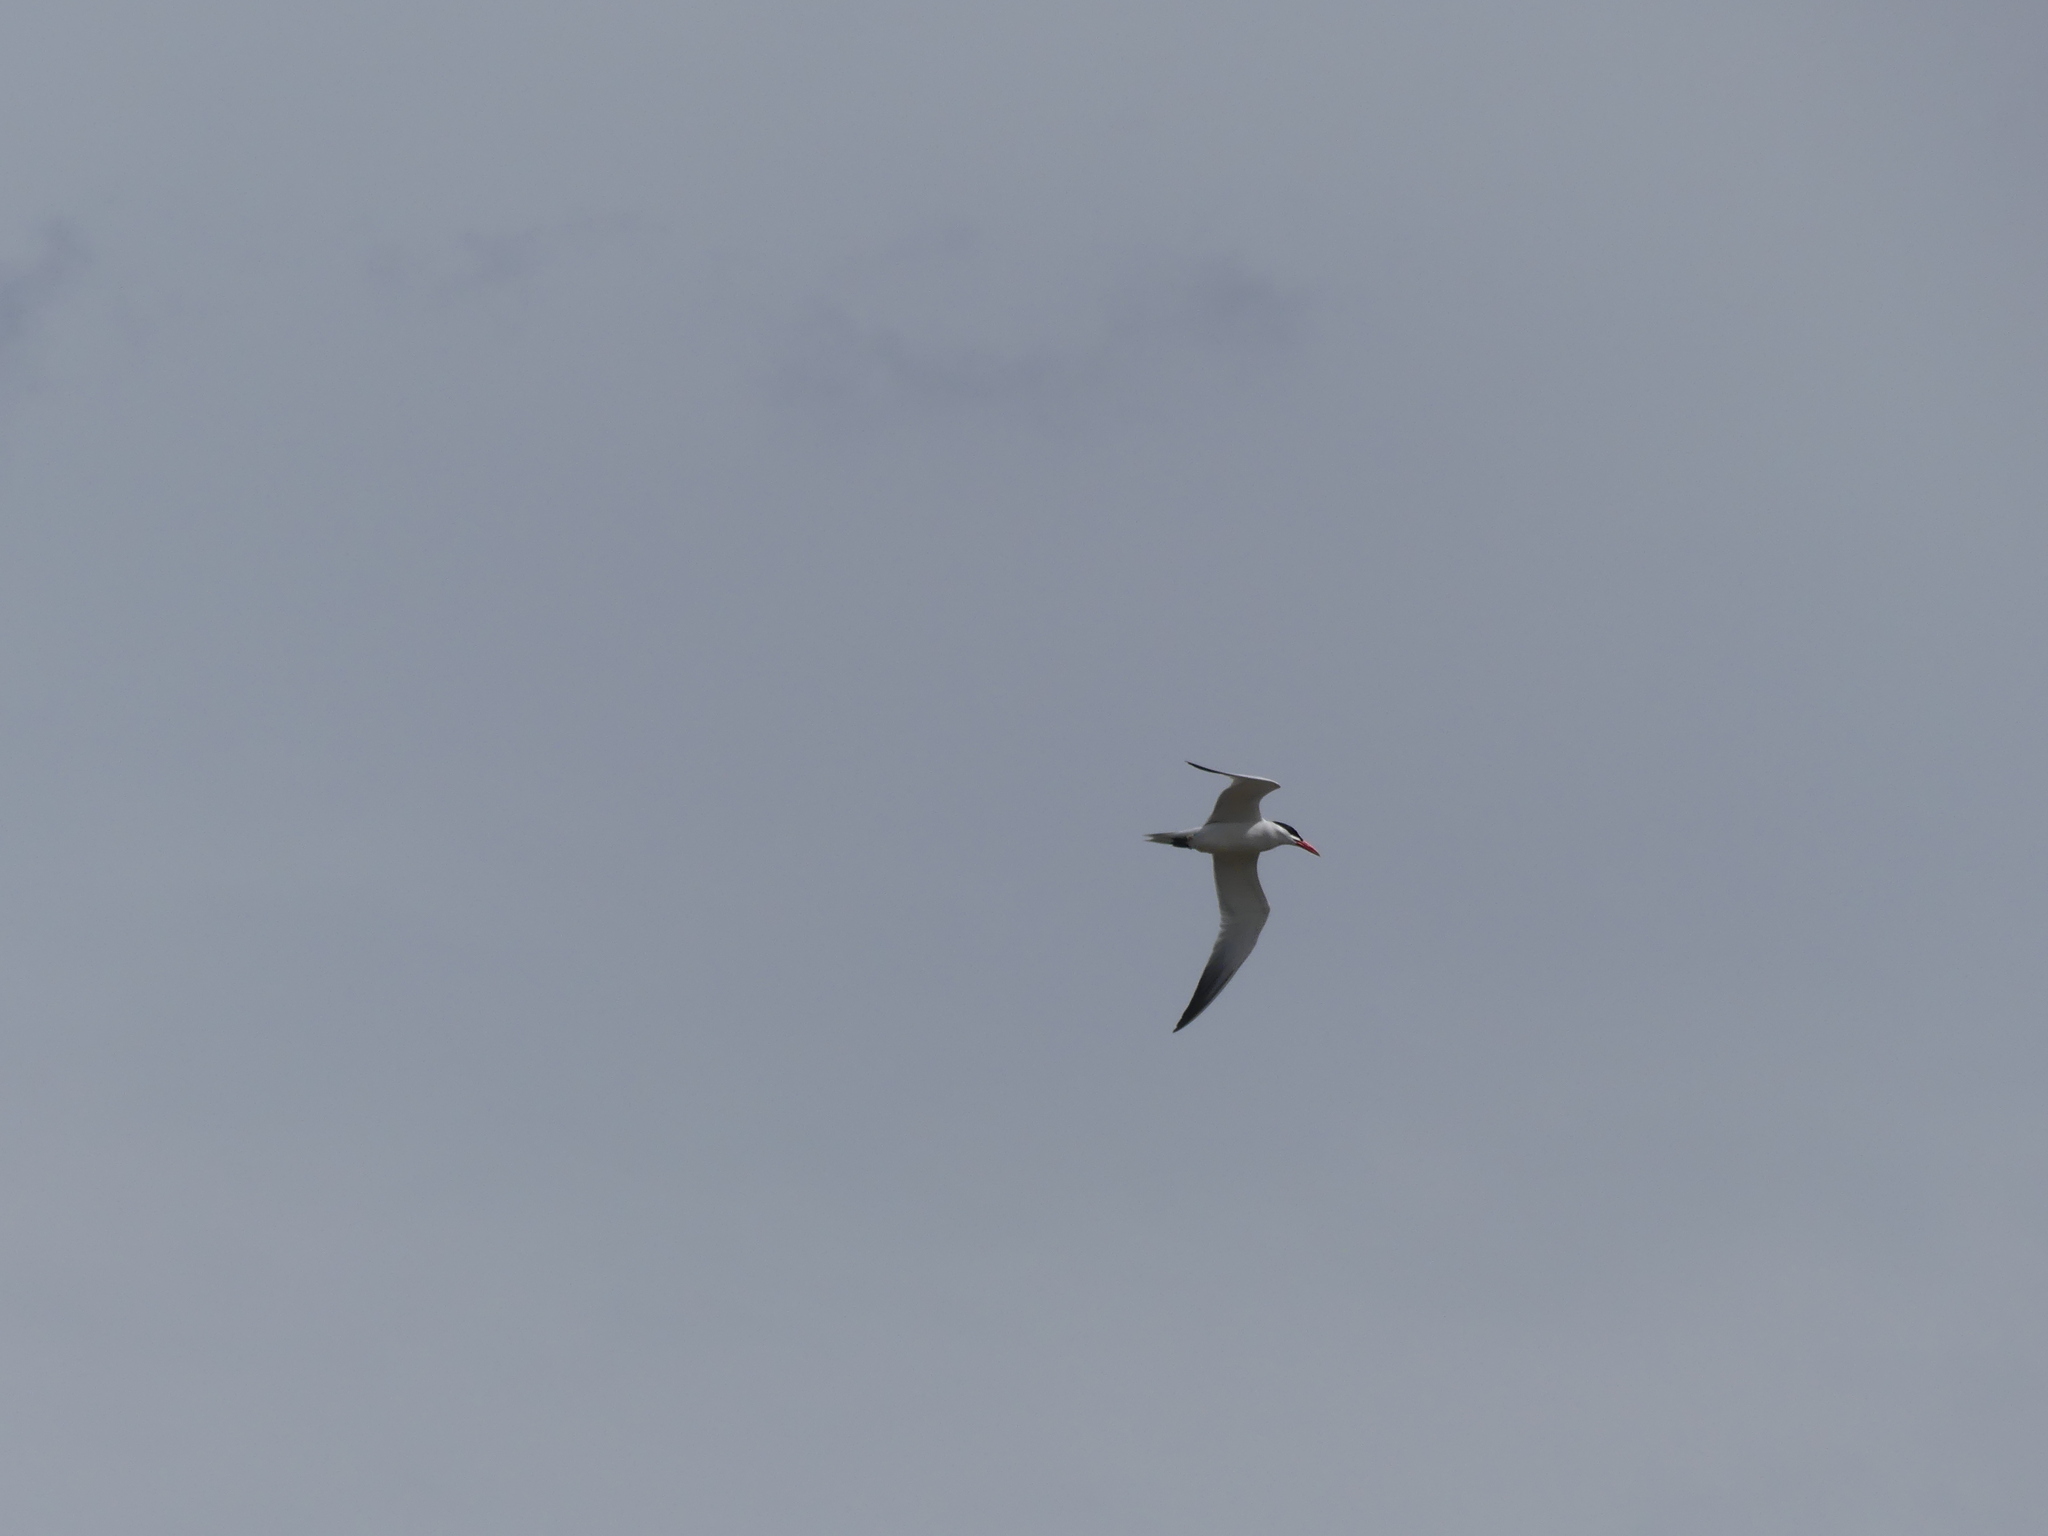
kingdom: Animalia
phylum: Chordata
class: Aves
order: Charadriiformes
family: Laridae
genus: Hydroprogne
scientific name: Hydroprogne caspia
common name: Caspian tern
